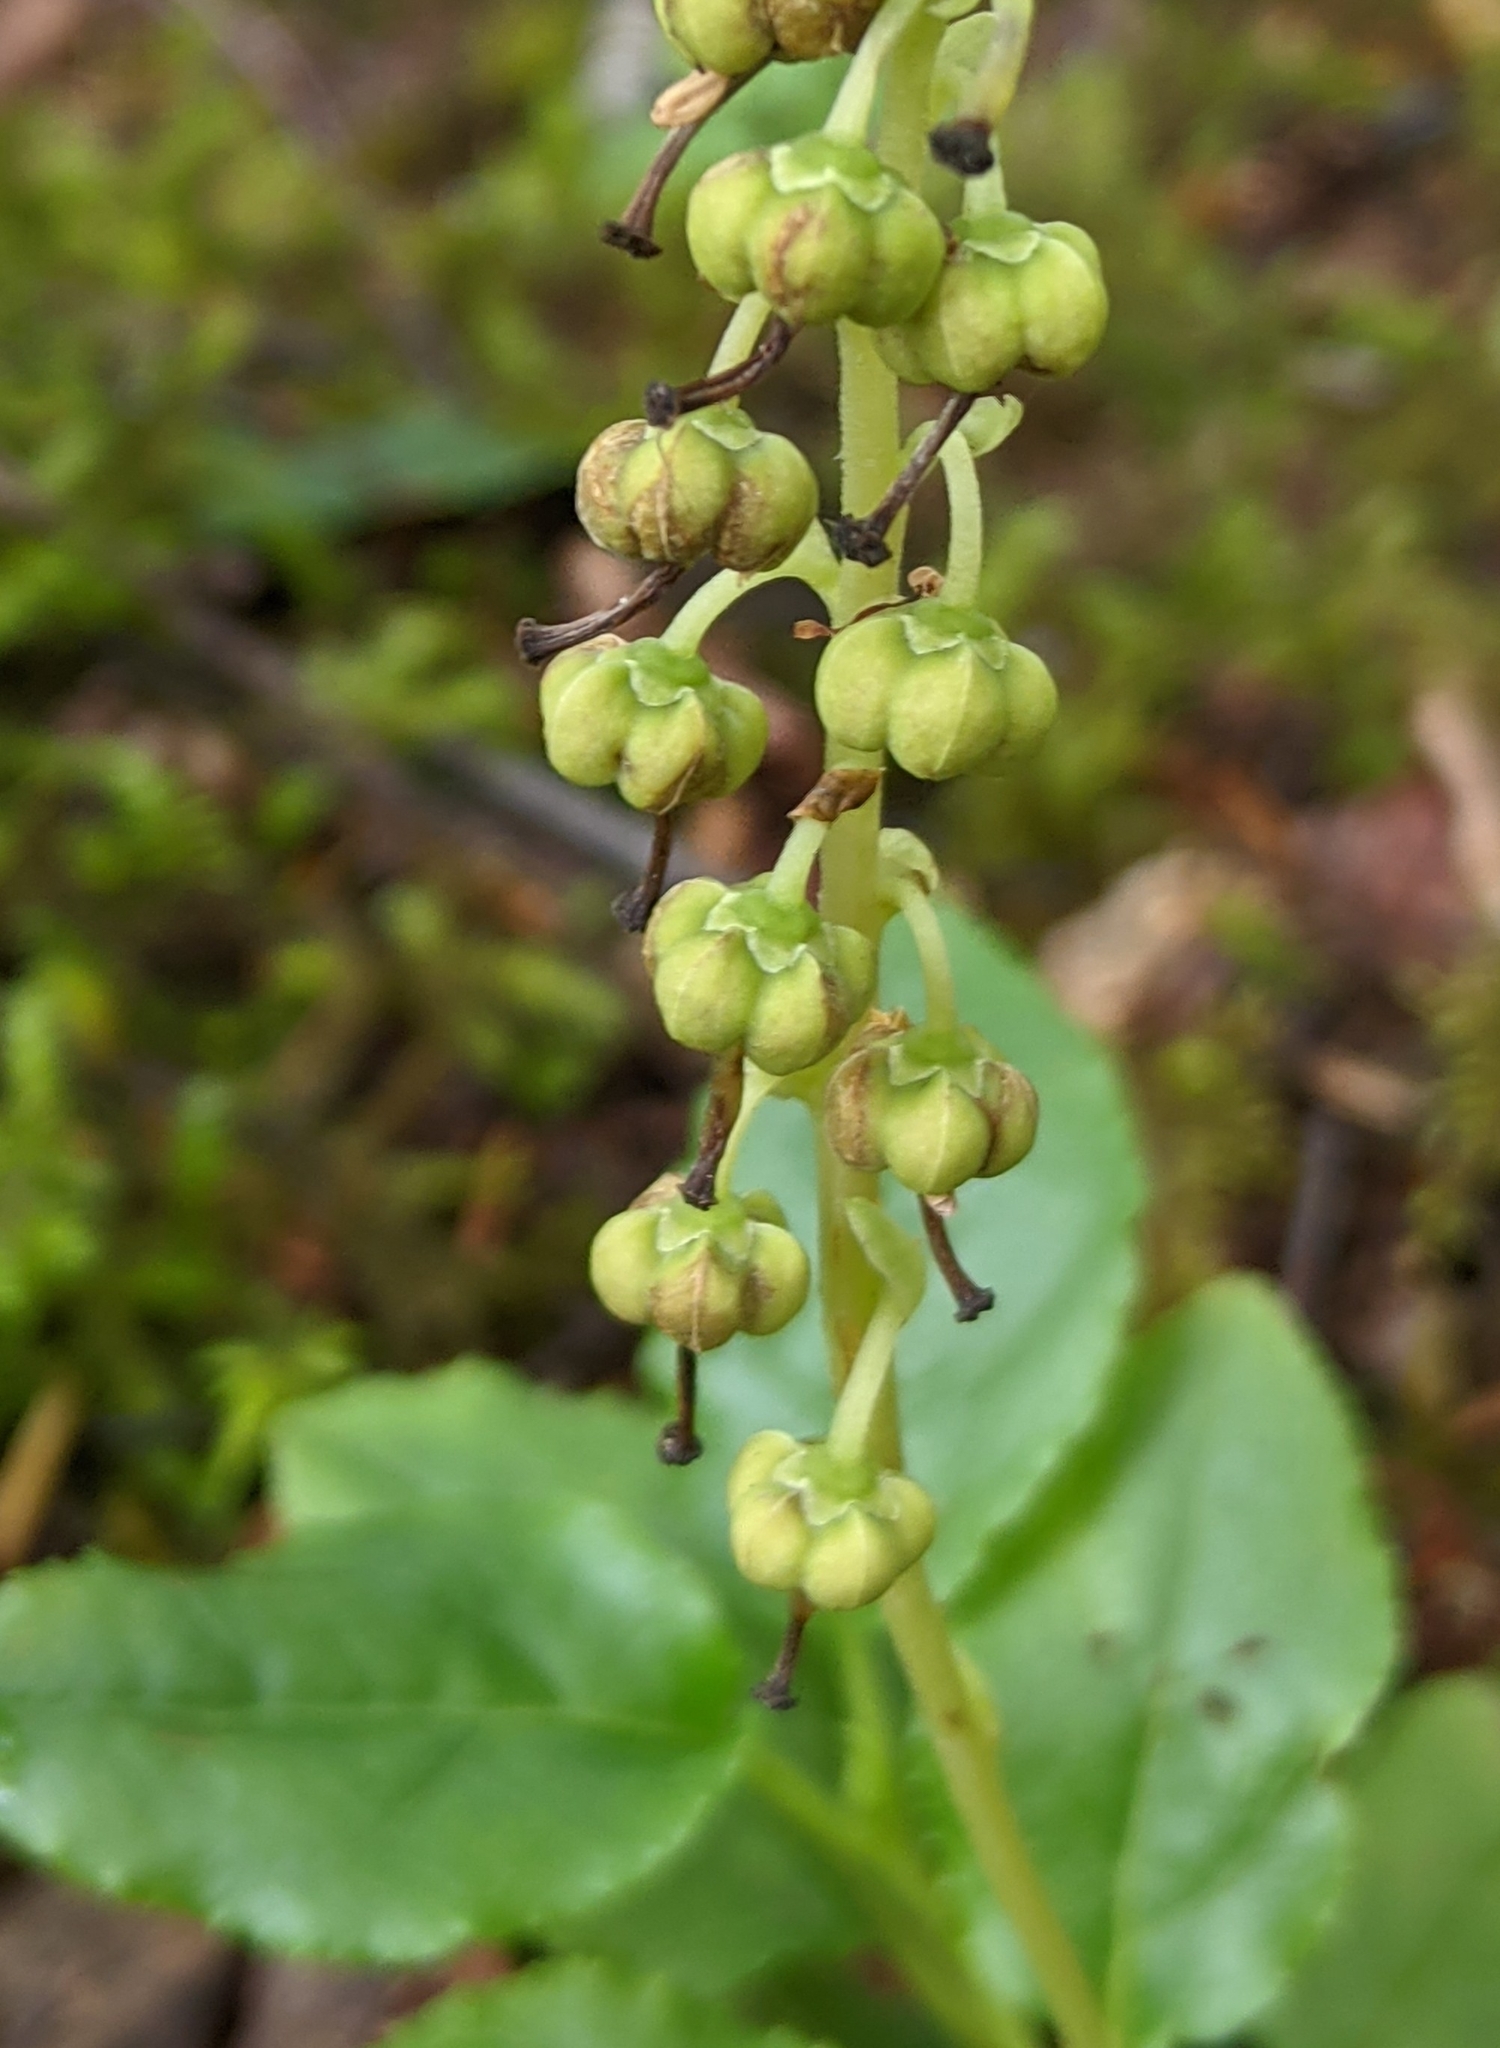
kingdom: Plantae
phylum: Tracheophyta
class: Magnoliopsida
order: Ericales
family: Ericaceae
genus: Orthilia
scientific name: Orthilia secunda
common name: One-sided orthilia
